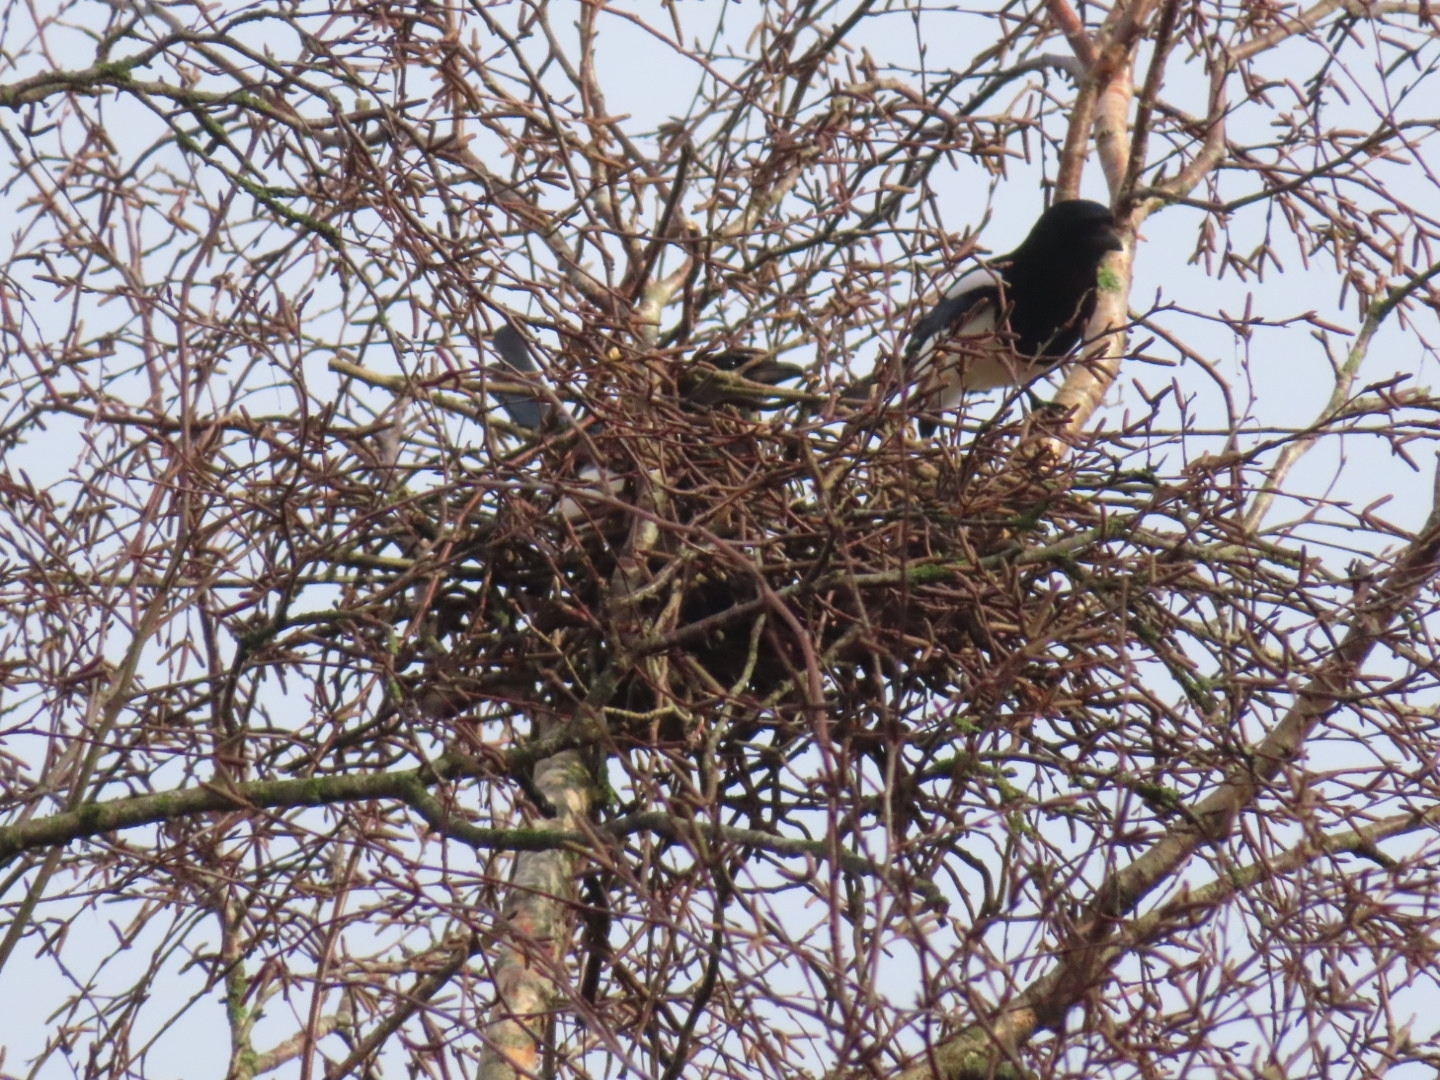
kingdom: Animalia
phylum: Chordata
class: Aves
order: Passeriformes
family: Corvidae
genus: Pica
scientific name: Pica pica
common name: Eurasian magpie
